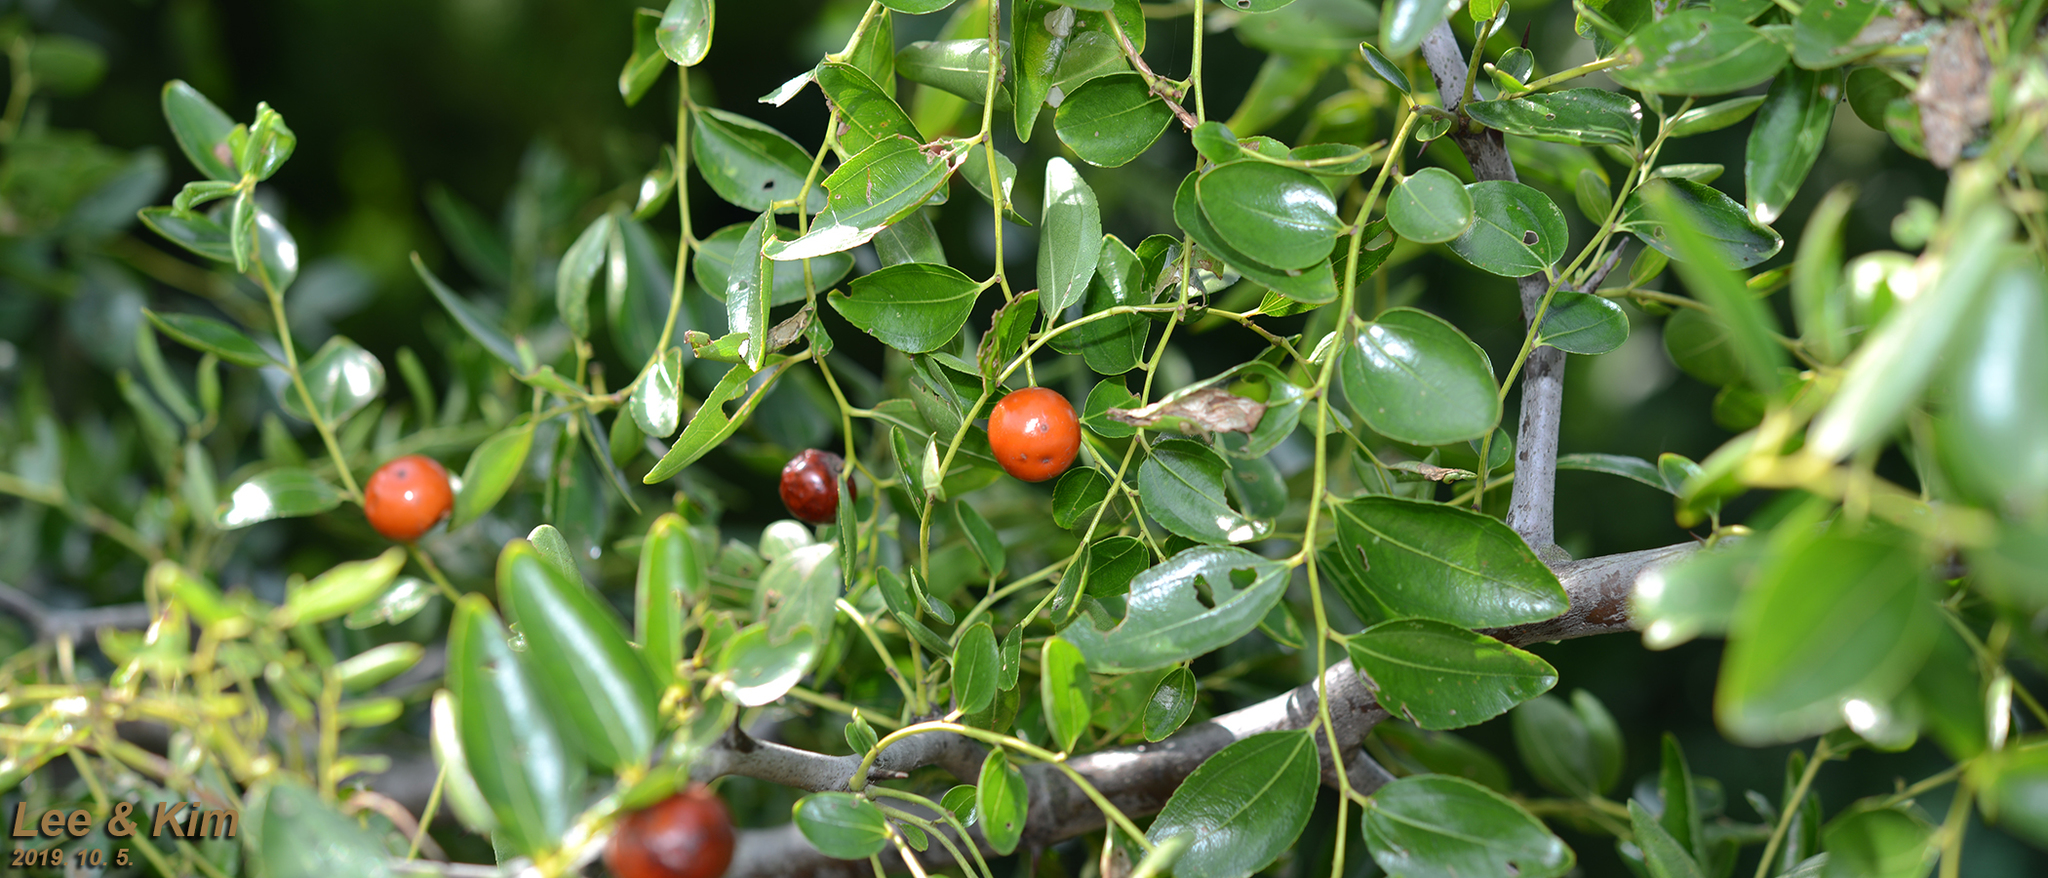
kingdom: Plantae
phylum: Tracheophyta
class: Magnoliopsida
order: Rosales
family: Rhamnaceae
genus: Ziziphus
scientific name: Ziziphus jujuba
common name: Jujube red date
